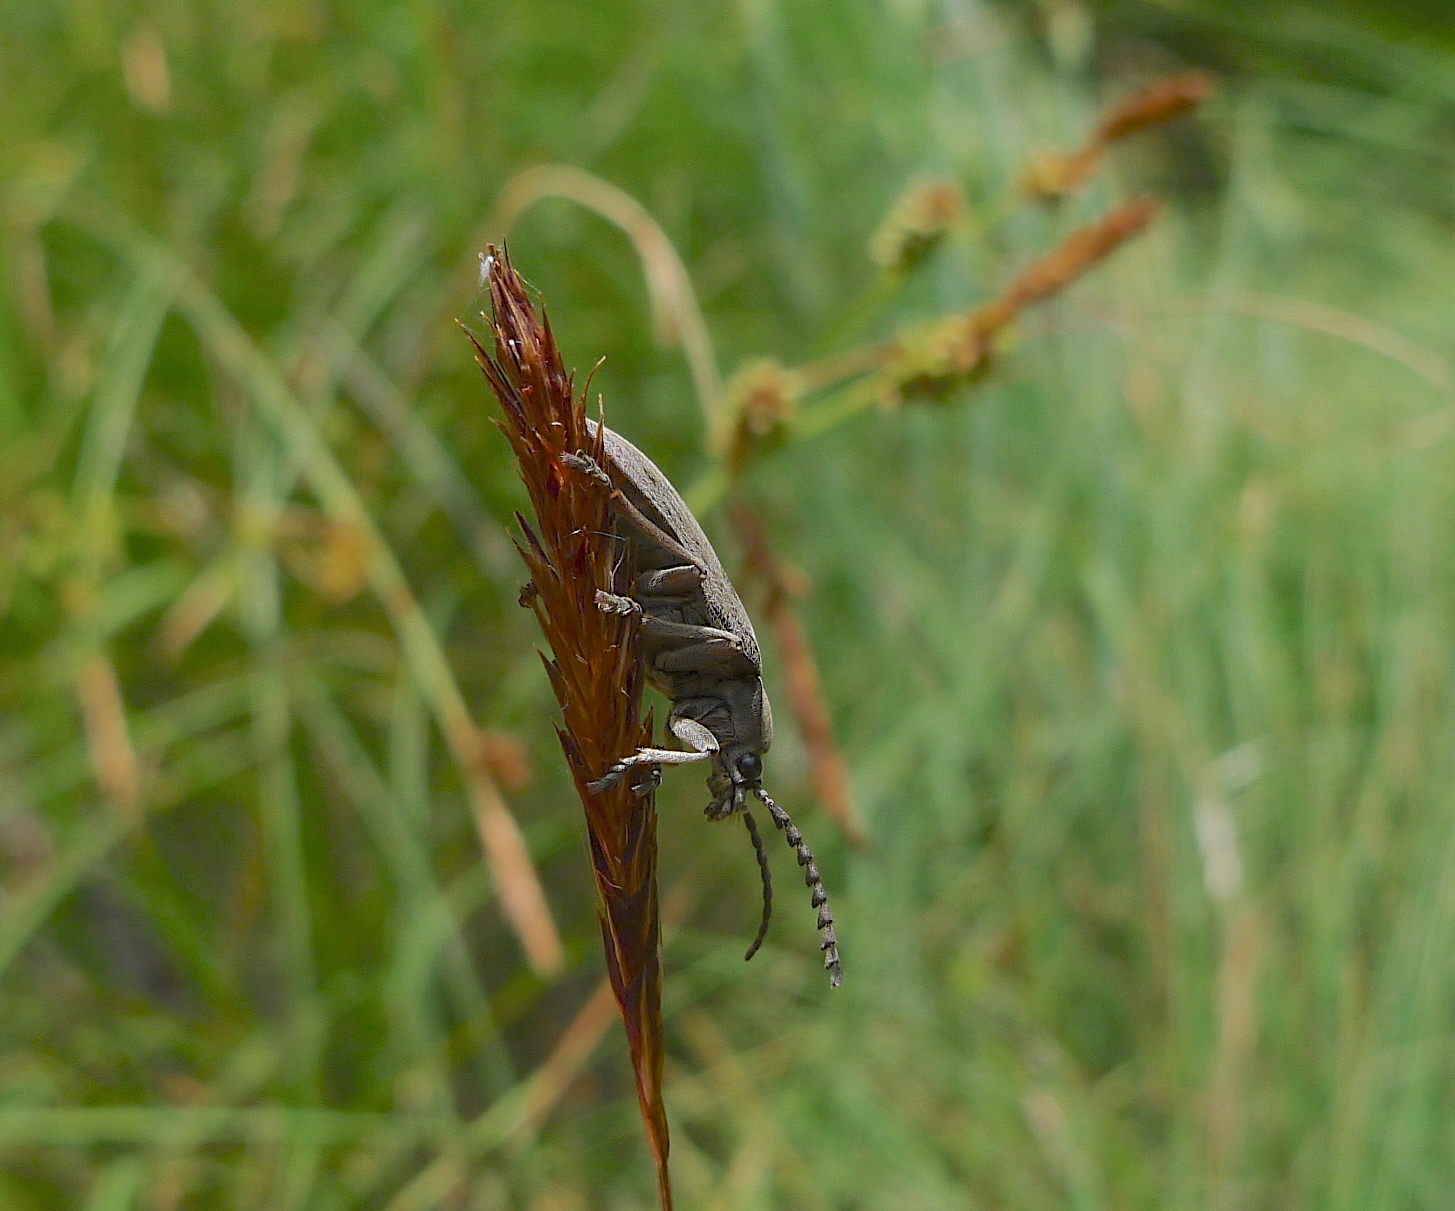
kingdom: Animalia
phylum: Arthropoda
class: Insecta
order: Coleoptera
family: Dascillidae
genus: Dascillus
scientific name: Dascillus davidsoni
